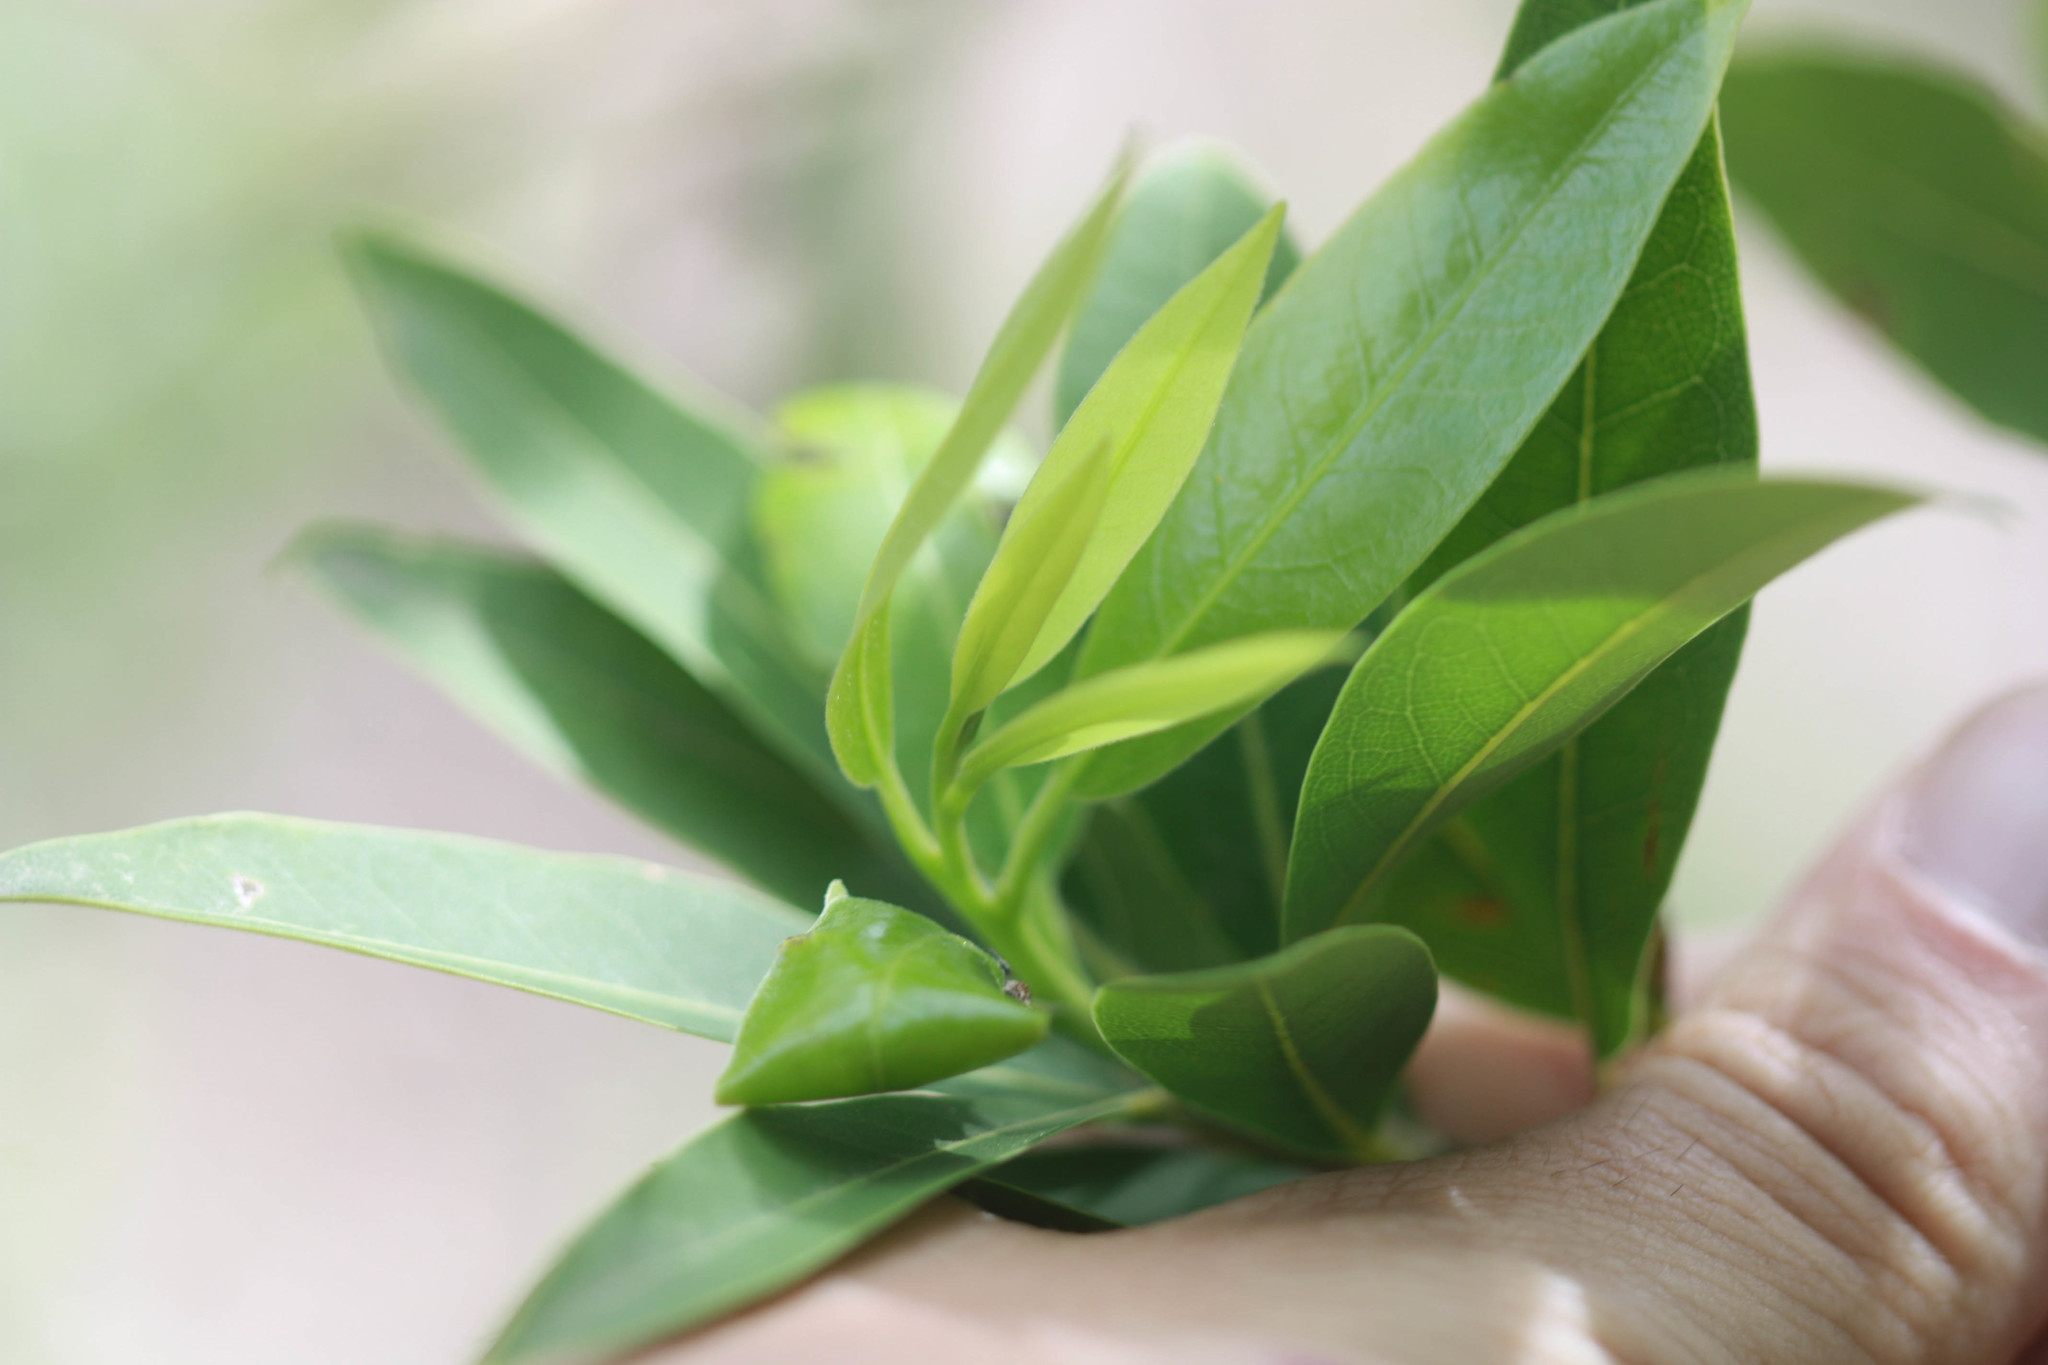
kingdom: Plantae
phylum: Tracheophyta
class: Magnoliopsida
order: Laurales
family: Lauraceae
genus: Umbellularia
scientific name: Umbellularia californica
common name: California bay
